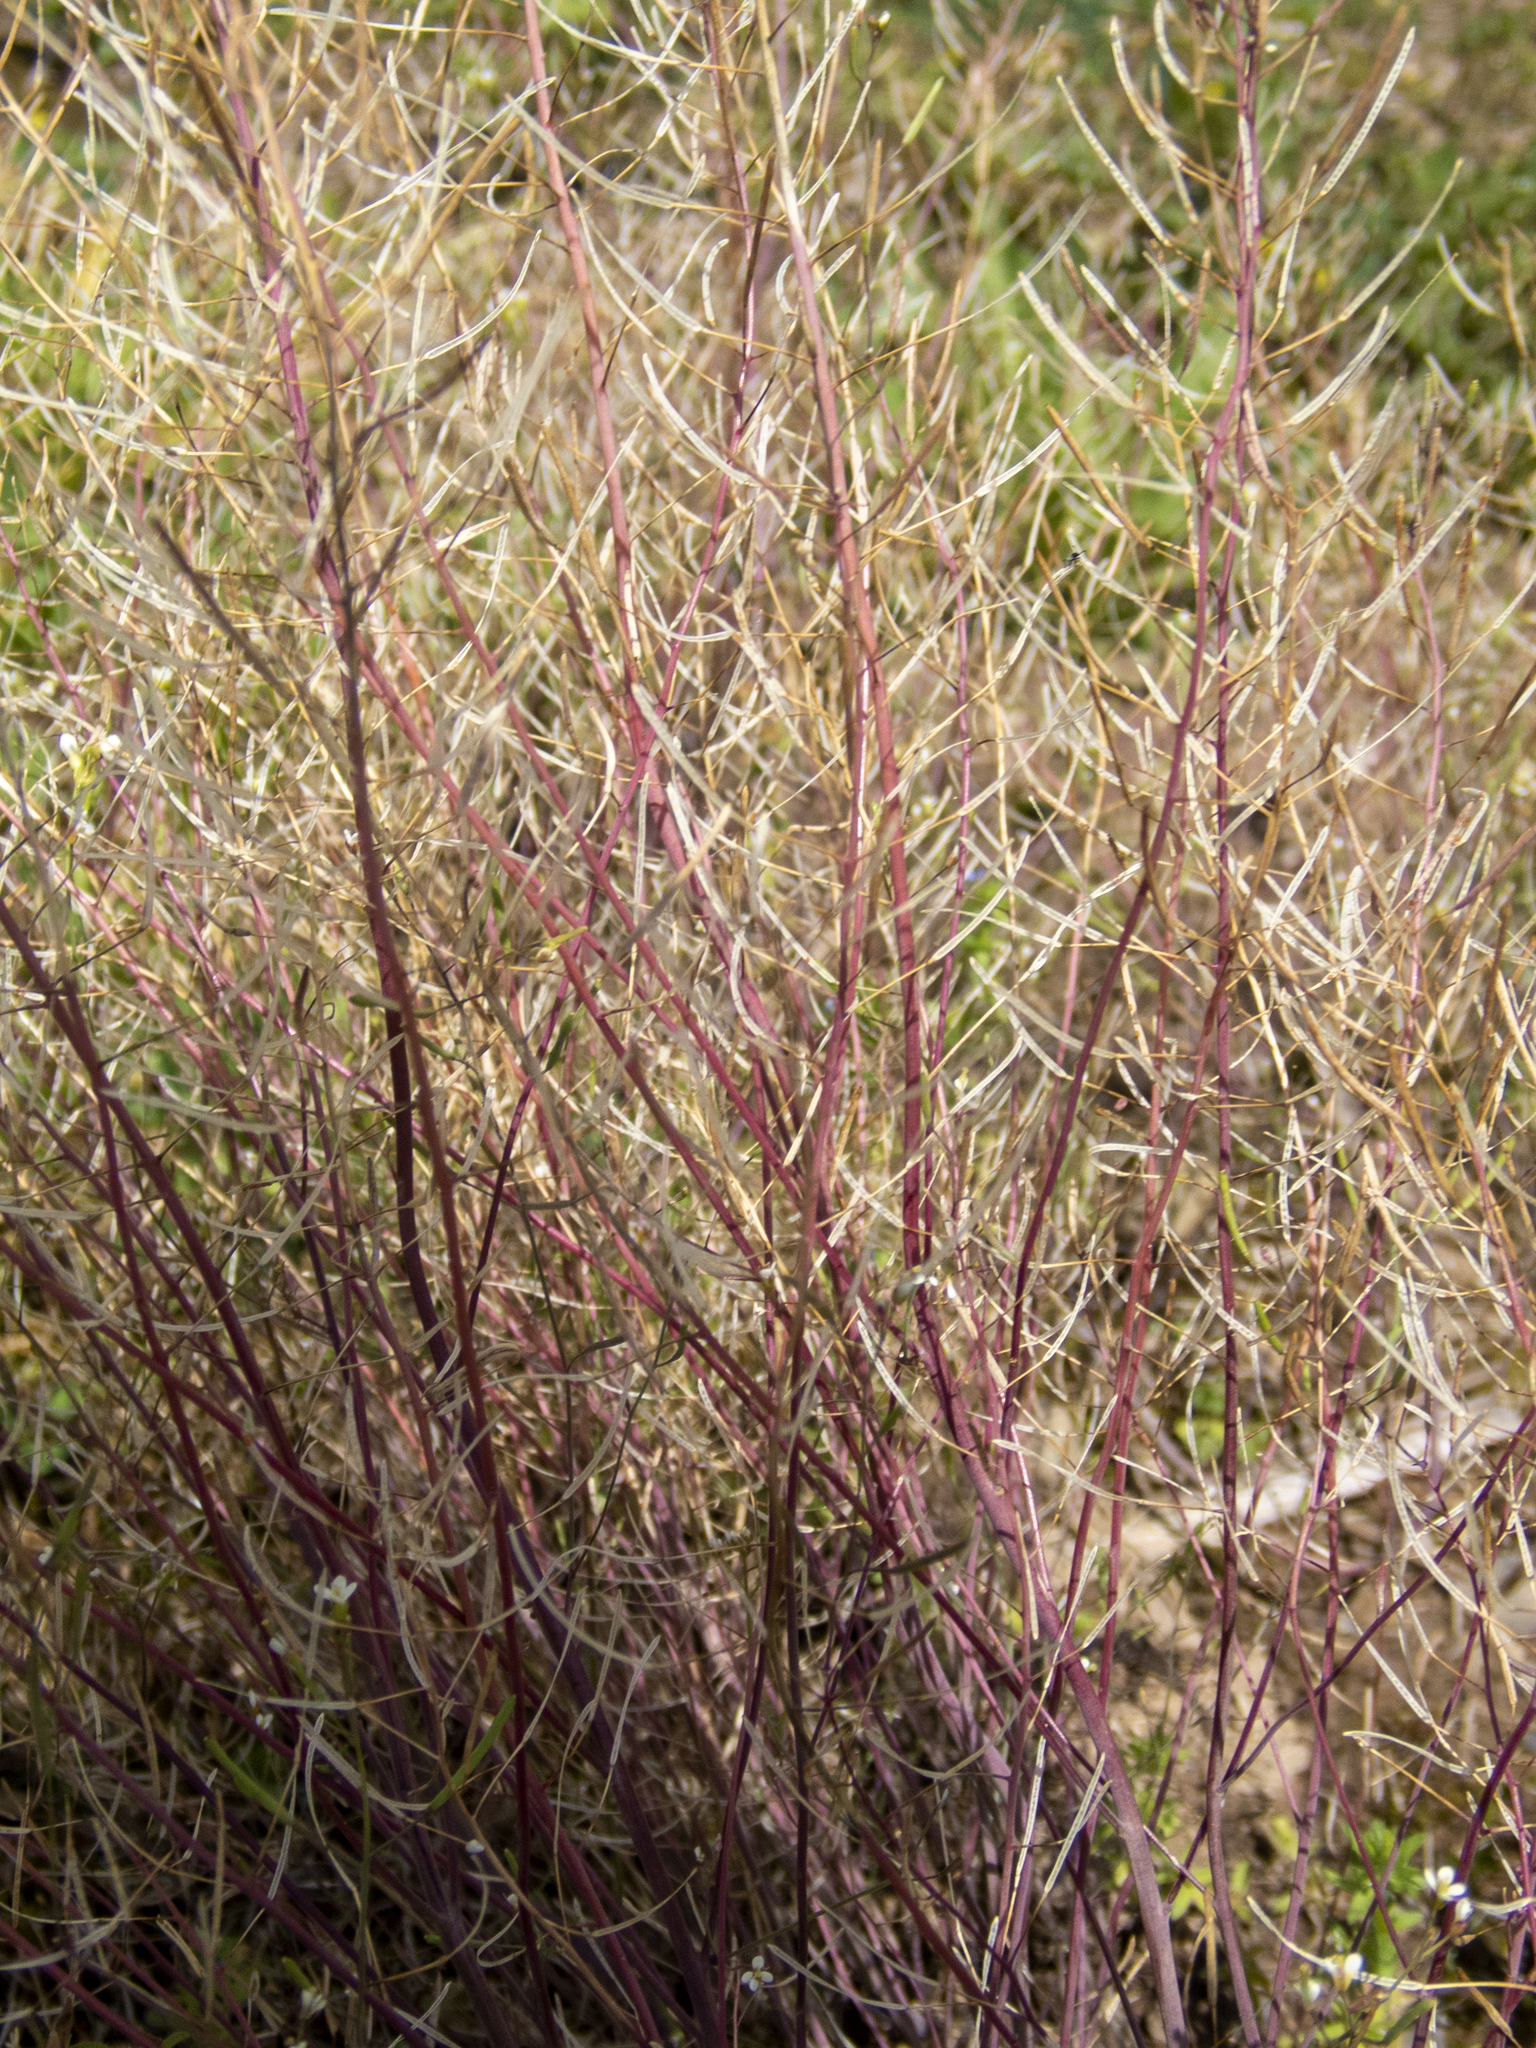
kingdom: Plantae
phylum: Tracheophyta
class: Magnoliopsida
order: Brassicales
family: Brassicaceae
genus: Arabidopsis
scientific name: Arabidopsis thaliana
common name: Thale cress
